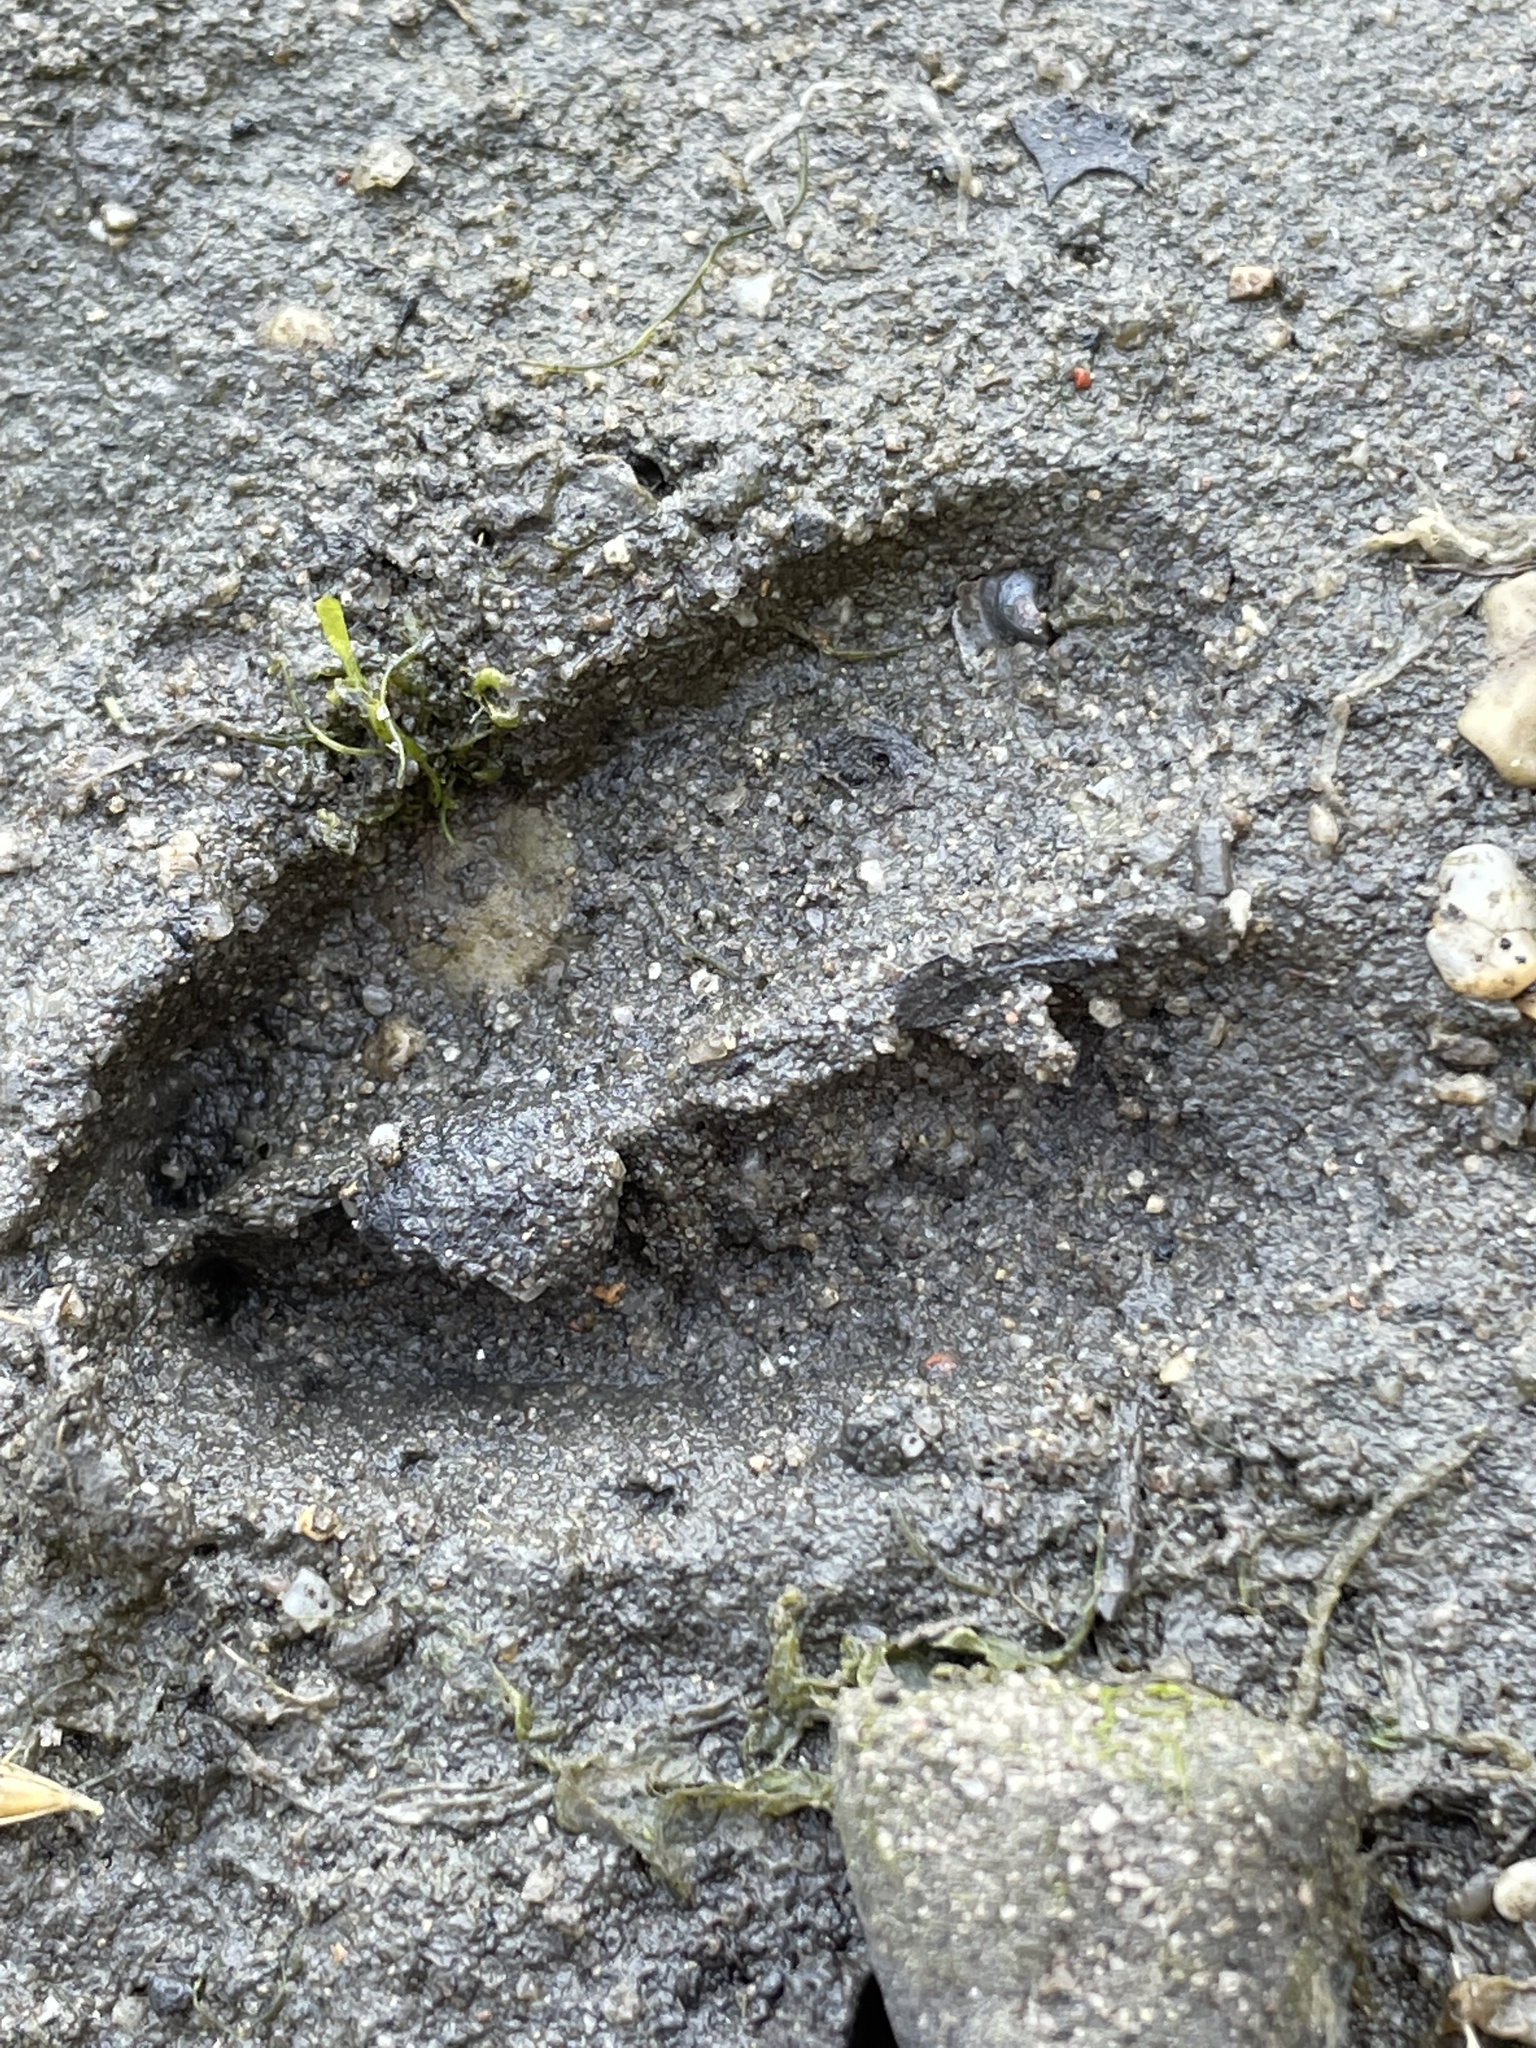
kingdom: Animalia
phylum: Chordata
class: Mammalia
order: Artiodactyla
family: Cervidae
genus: Odocoileus
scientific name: Odocoileus hemionus
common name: Mule deer
